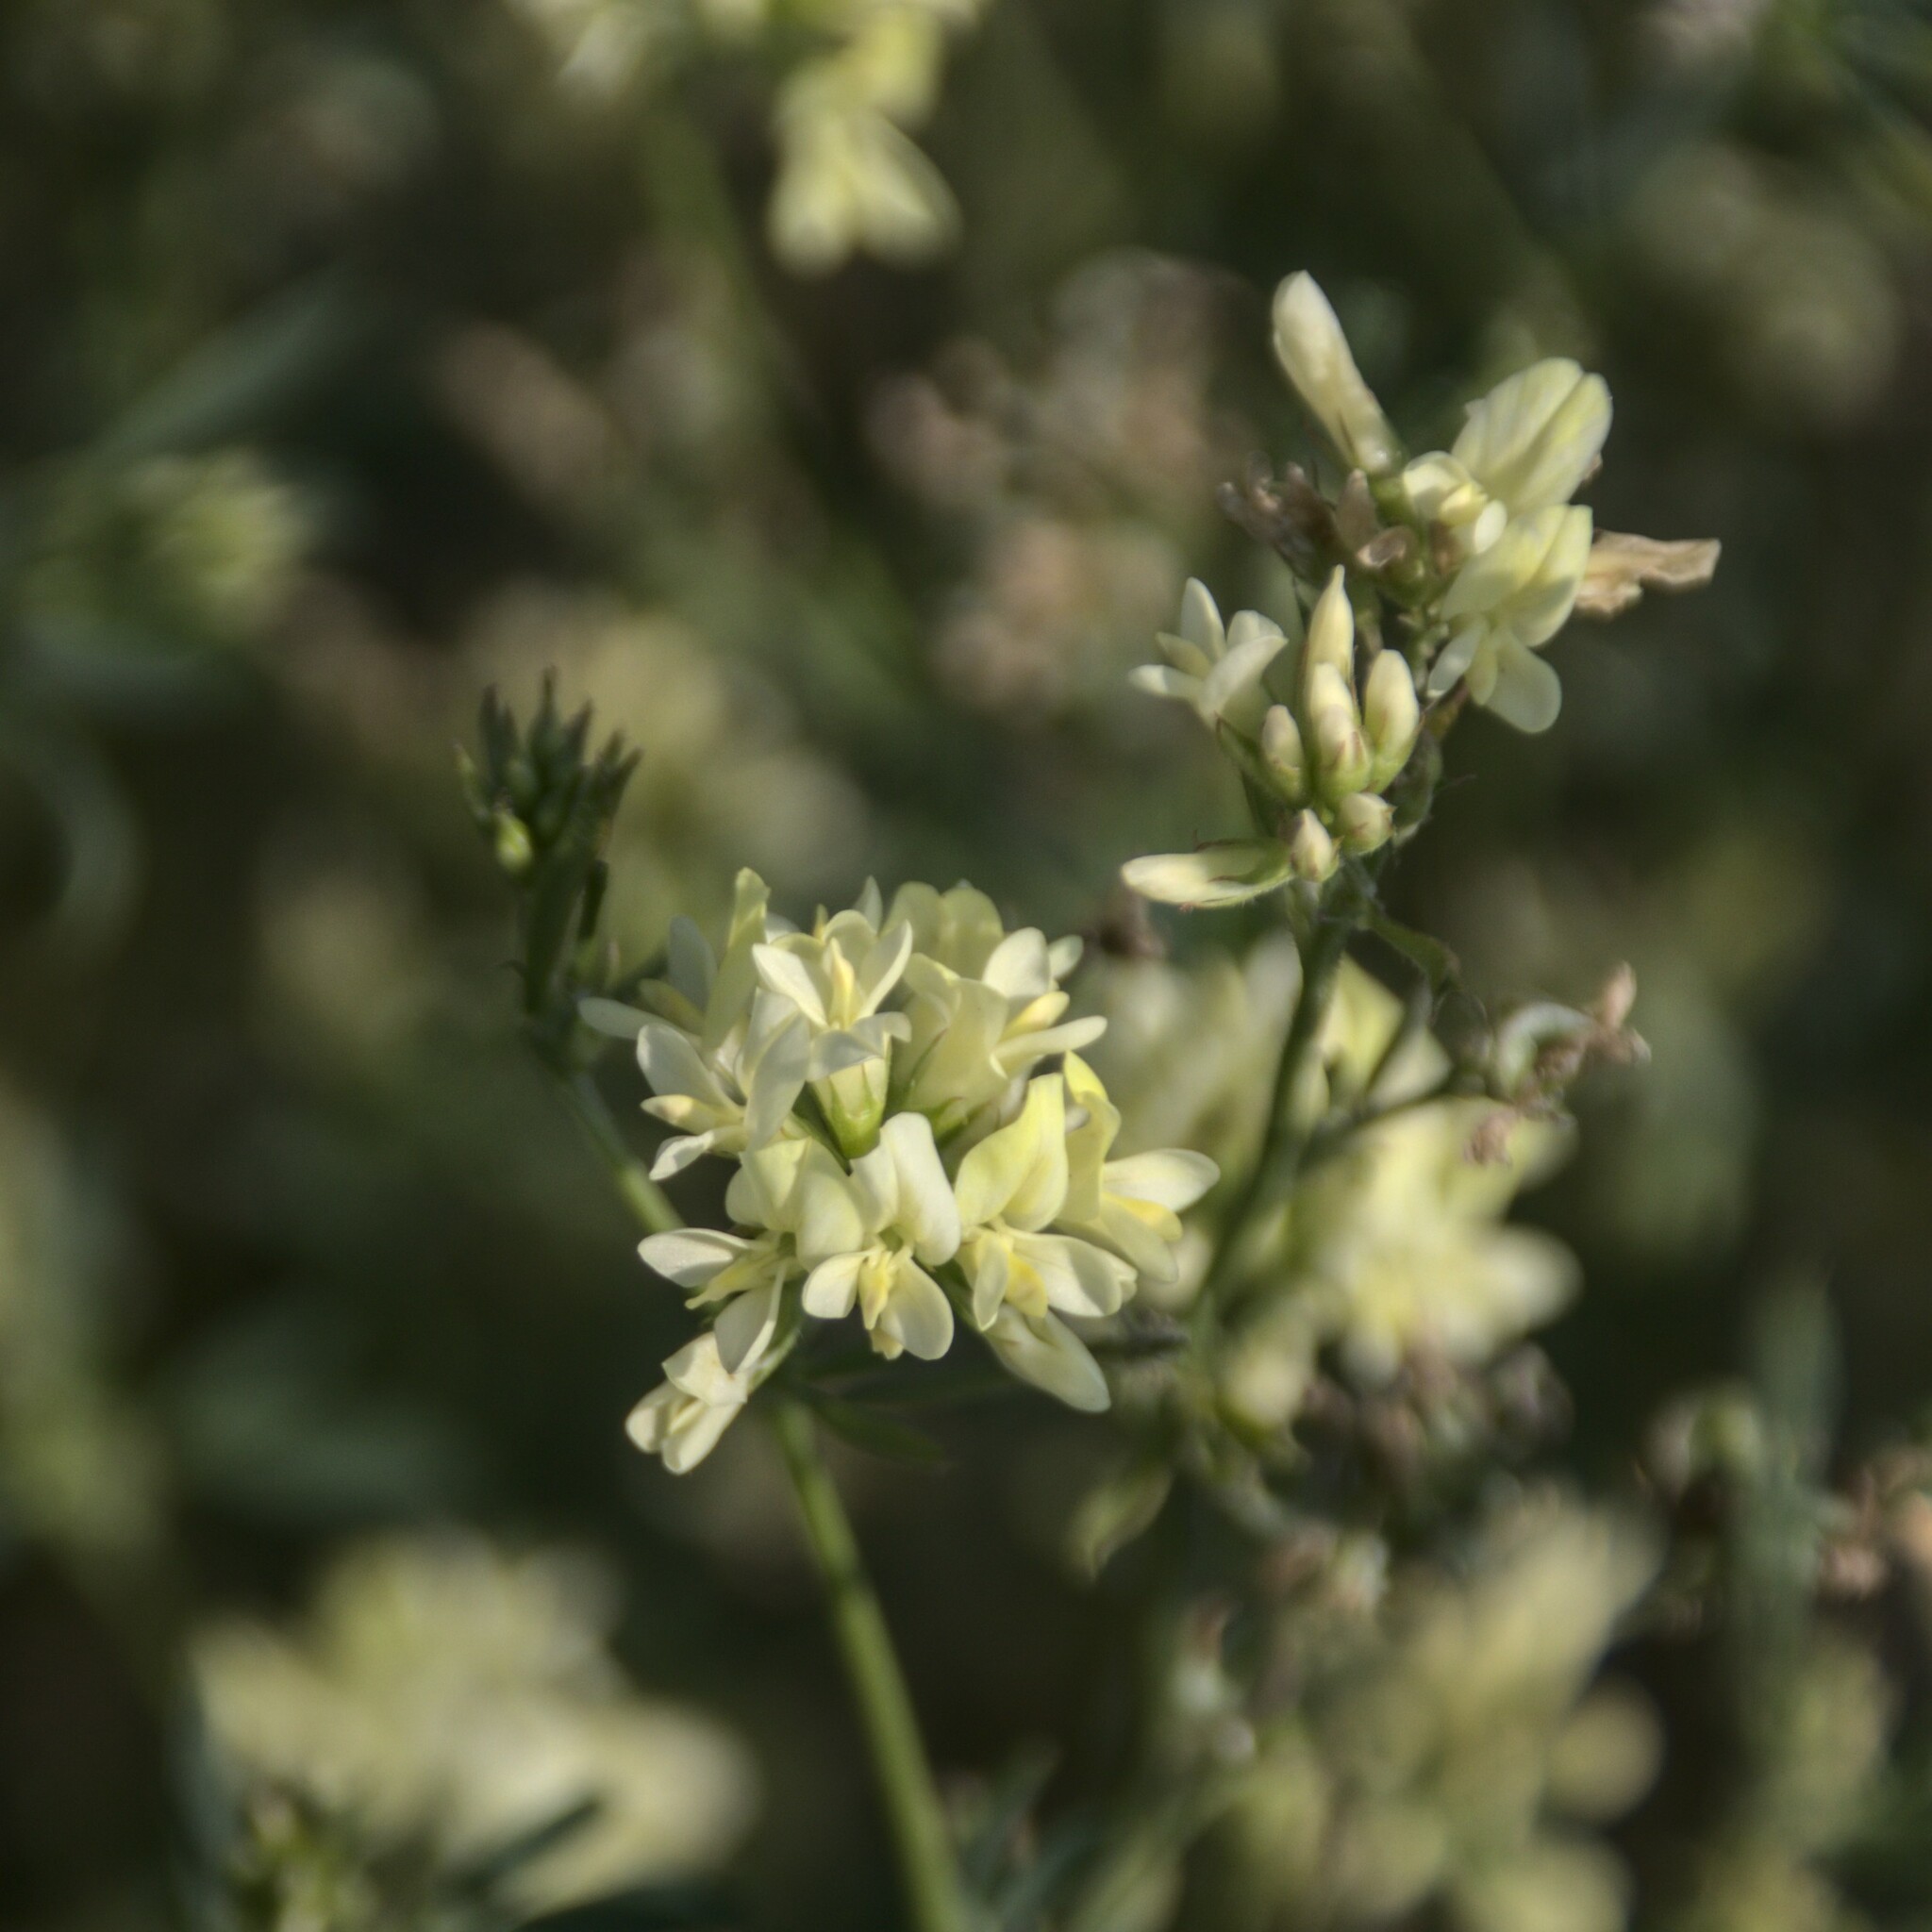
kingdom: Plantae
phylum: Tracheophyta
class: Magnoliopsida
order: Fabales
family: Fabaceae
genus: Medicago
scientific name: Medicago varia
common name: Sand lucerne
